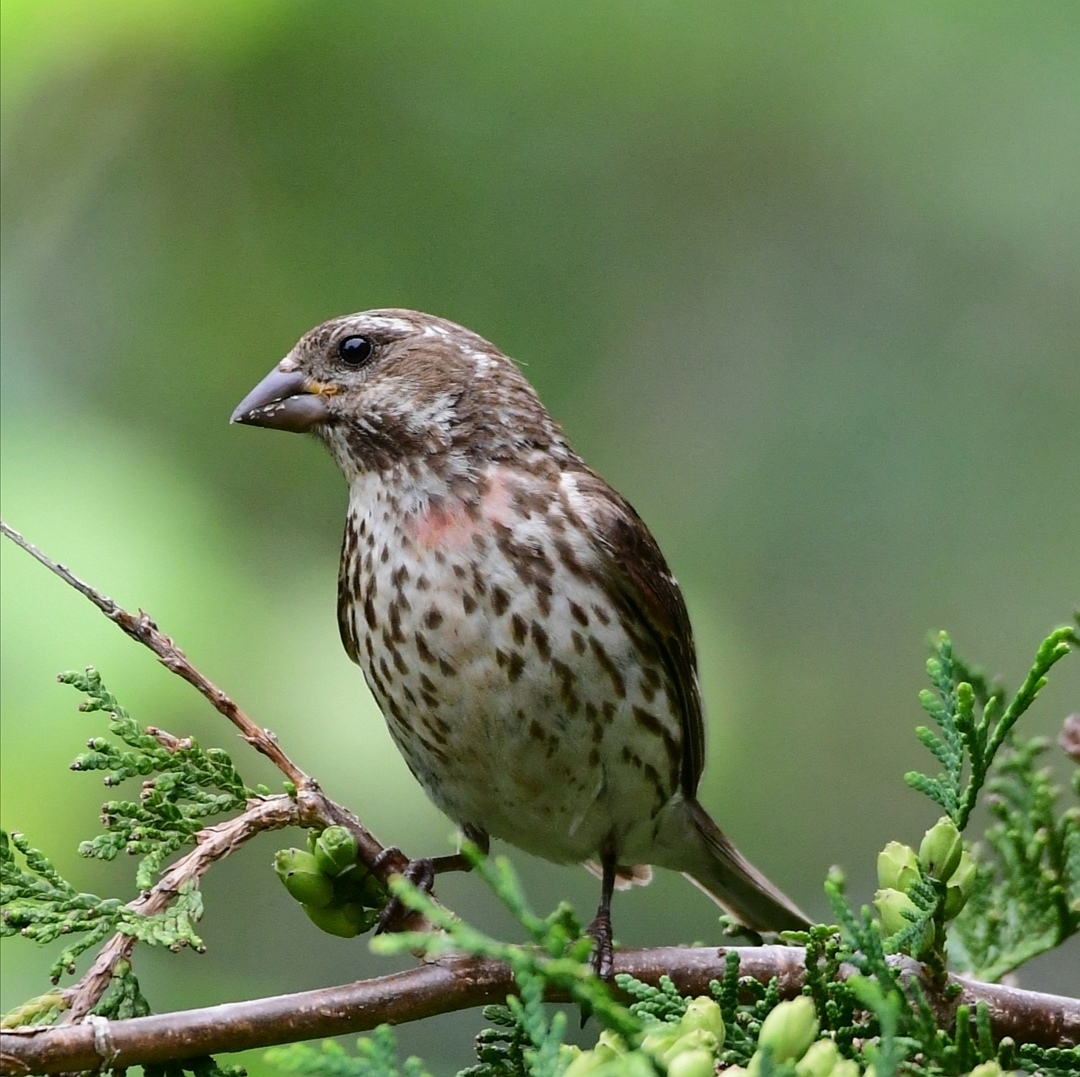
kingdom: Animalia
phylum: Chordata
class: Aves
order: Passeriformes
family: Fringillidae
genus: Haemorhous
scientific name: Haemorhous purpureus
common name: Purple finch
